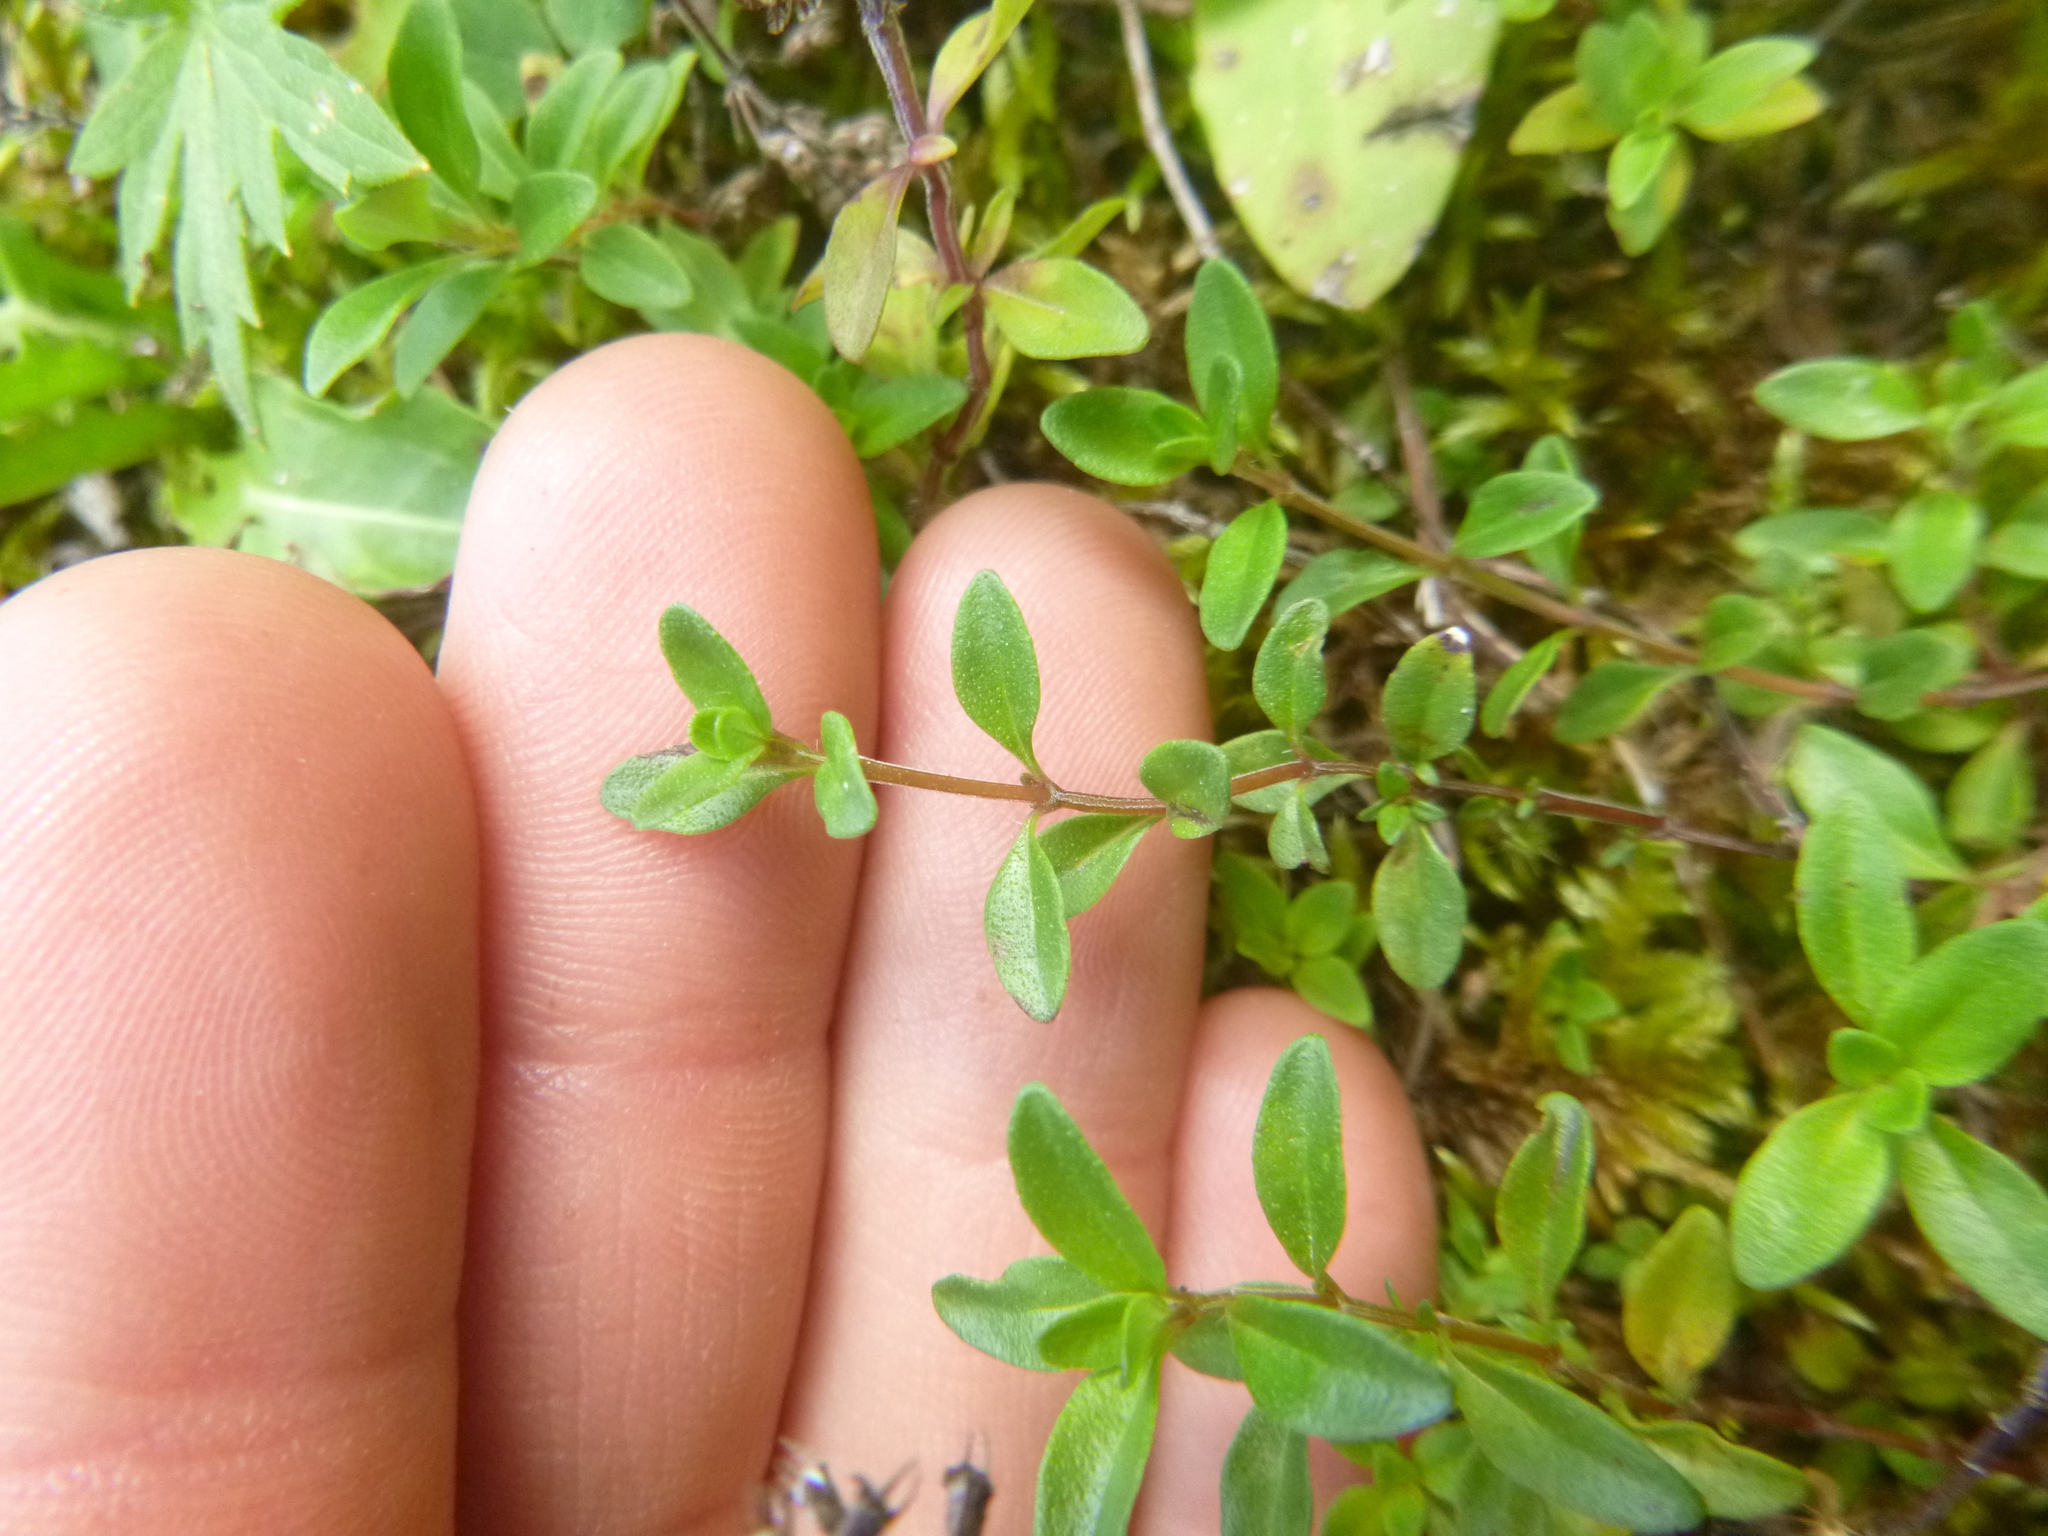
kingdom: Plantae
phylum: Tracheophyta
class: Magnoliopsida
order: Lamiales
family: Lamiaceae
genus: Thymus
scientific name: Thymus pulegioides
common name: Large thyme
